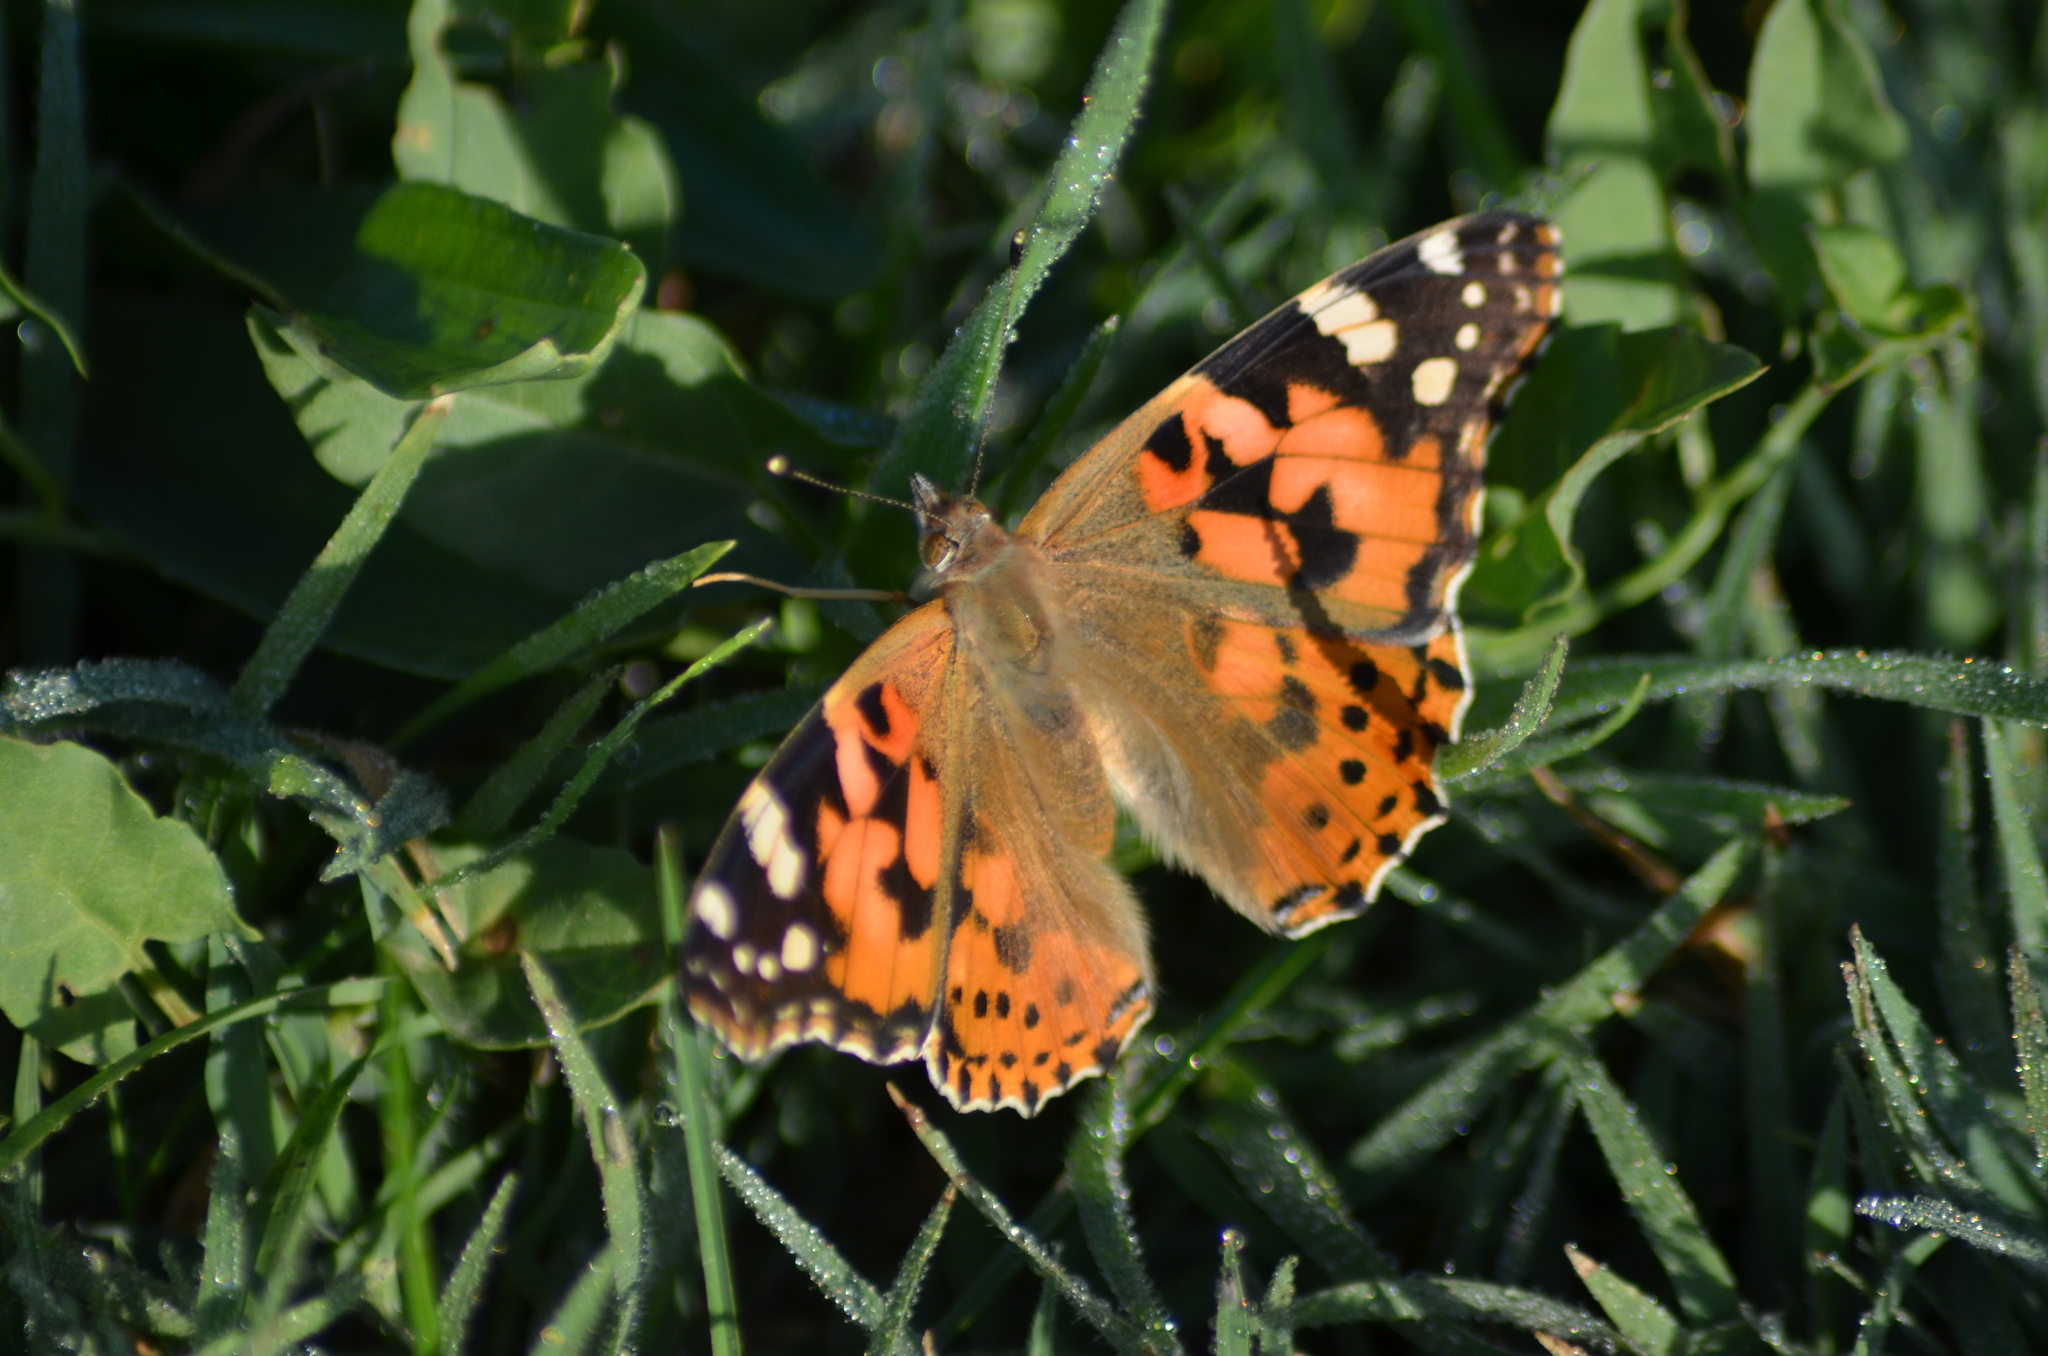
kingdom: Animalia
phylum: Arthropoda
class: Insecta
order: Lepidoptera
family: Nymphalidae
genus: Vanessa
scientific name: Vanessa cardui
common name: Painted lady
